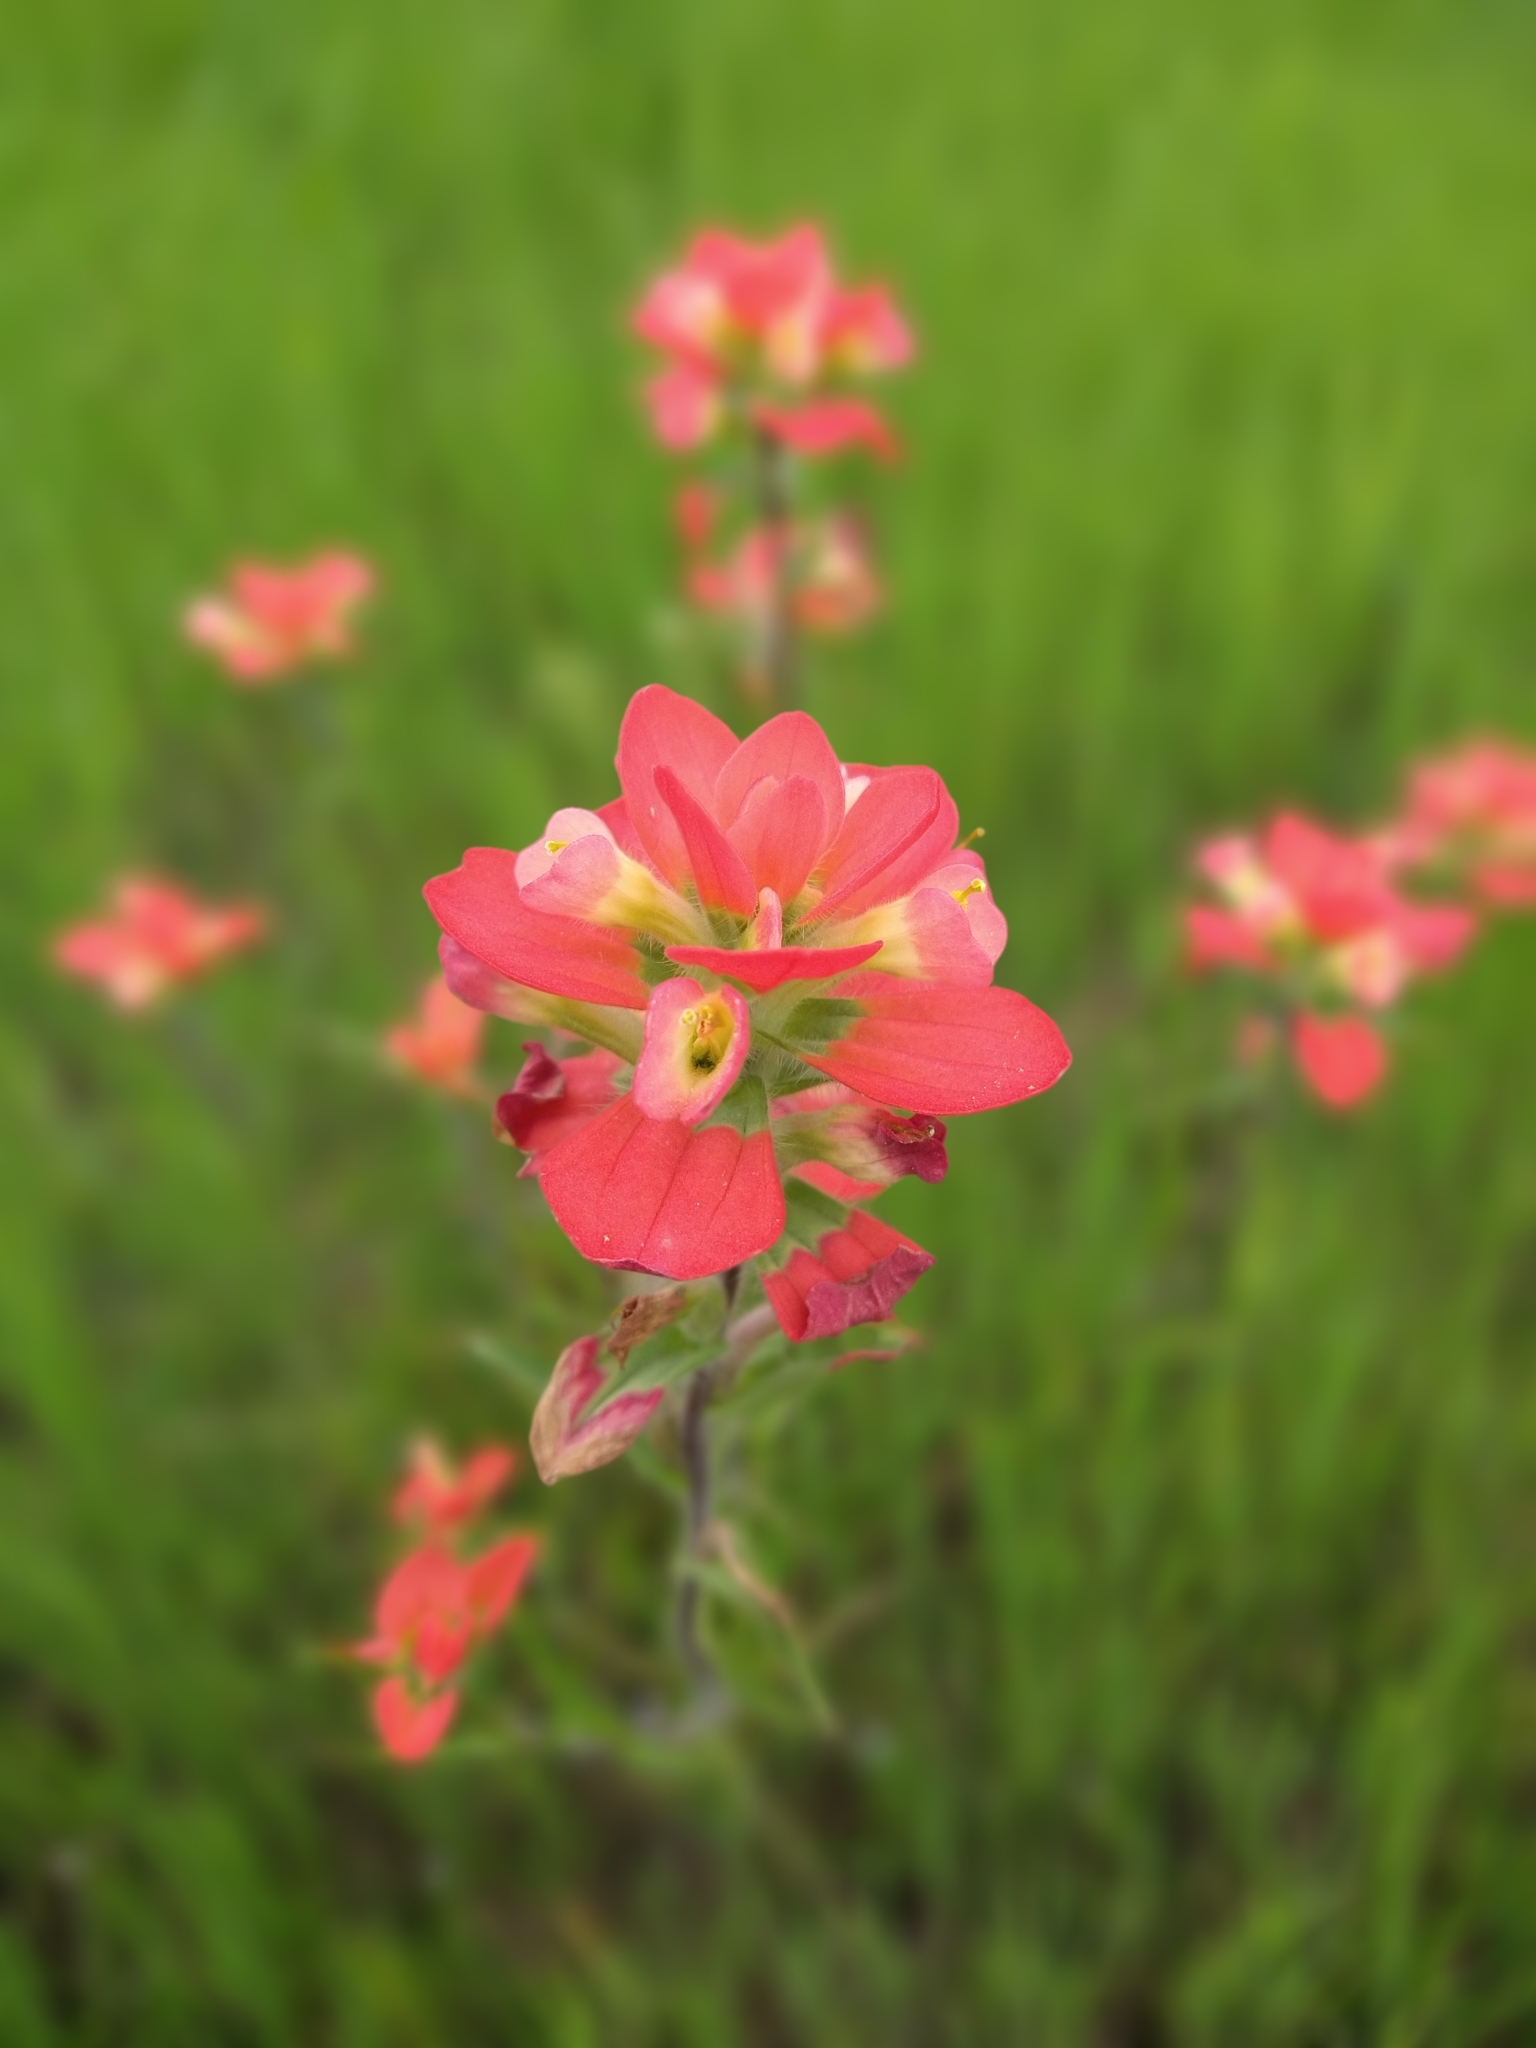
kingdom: Plantae
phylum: Tracheophyta
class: Magnoliopsida
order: Lamiales
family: Orobanchaceae
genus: Castilleja
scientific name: Castilleja indivisa
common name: Texas paintbrush
